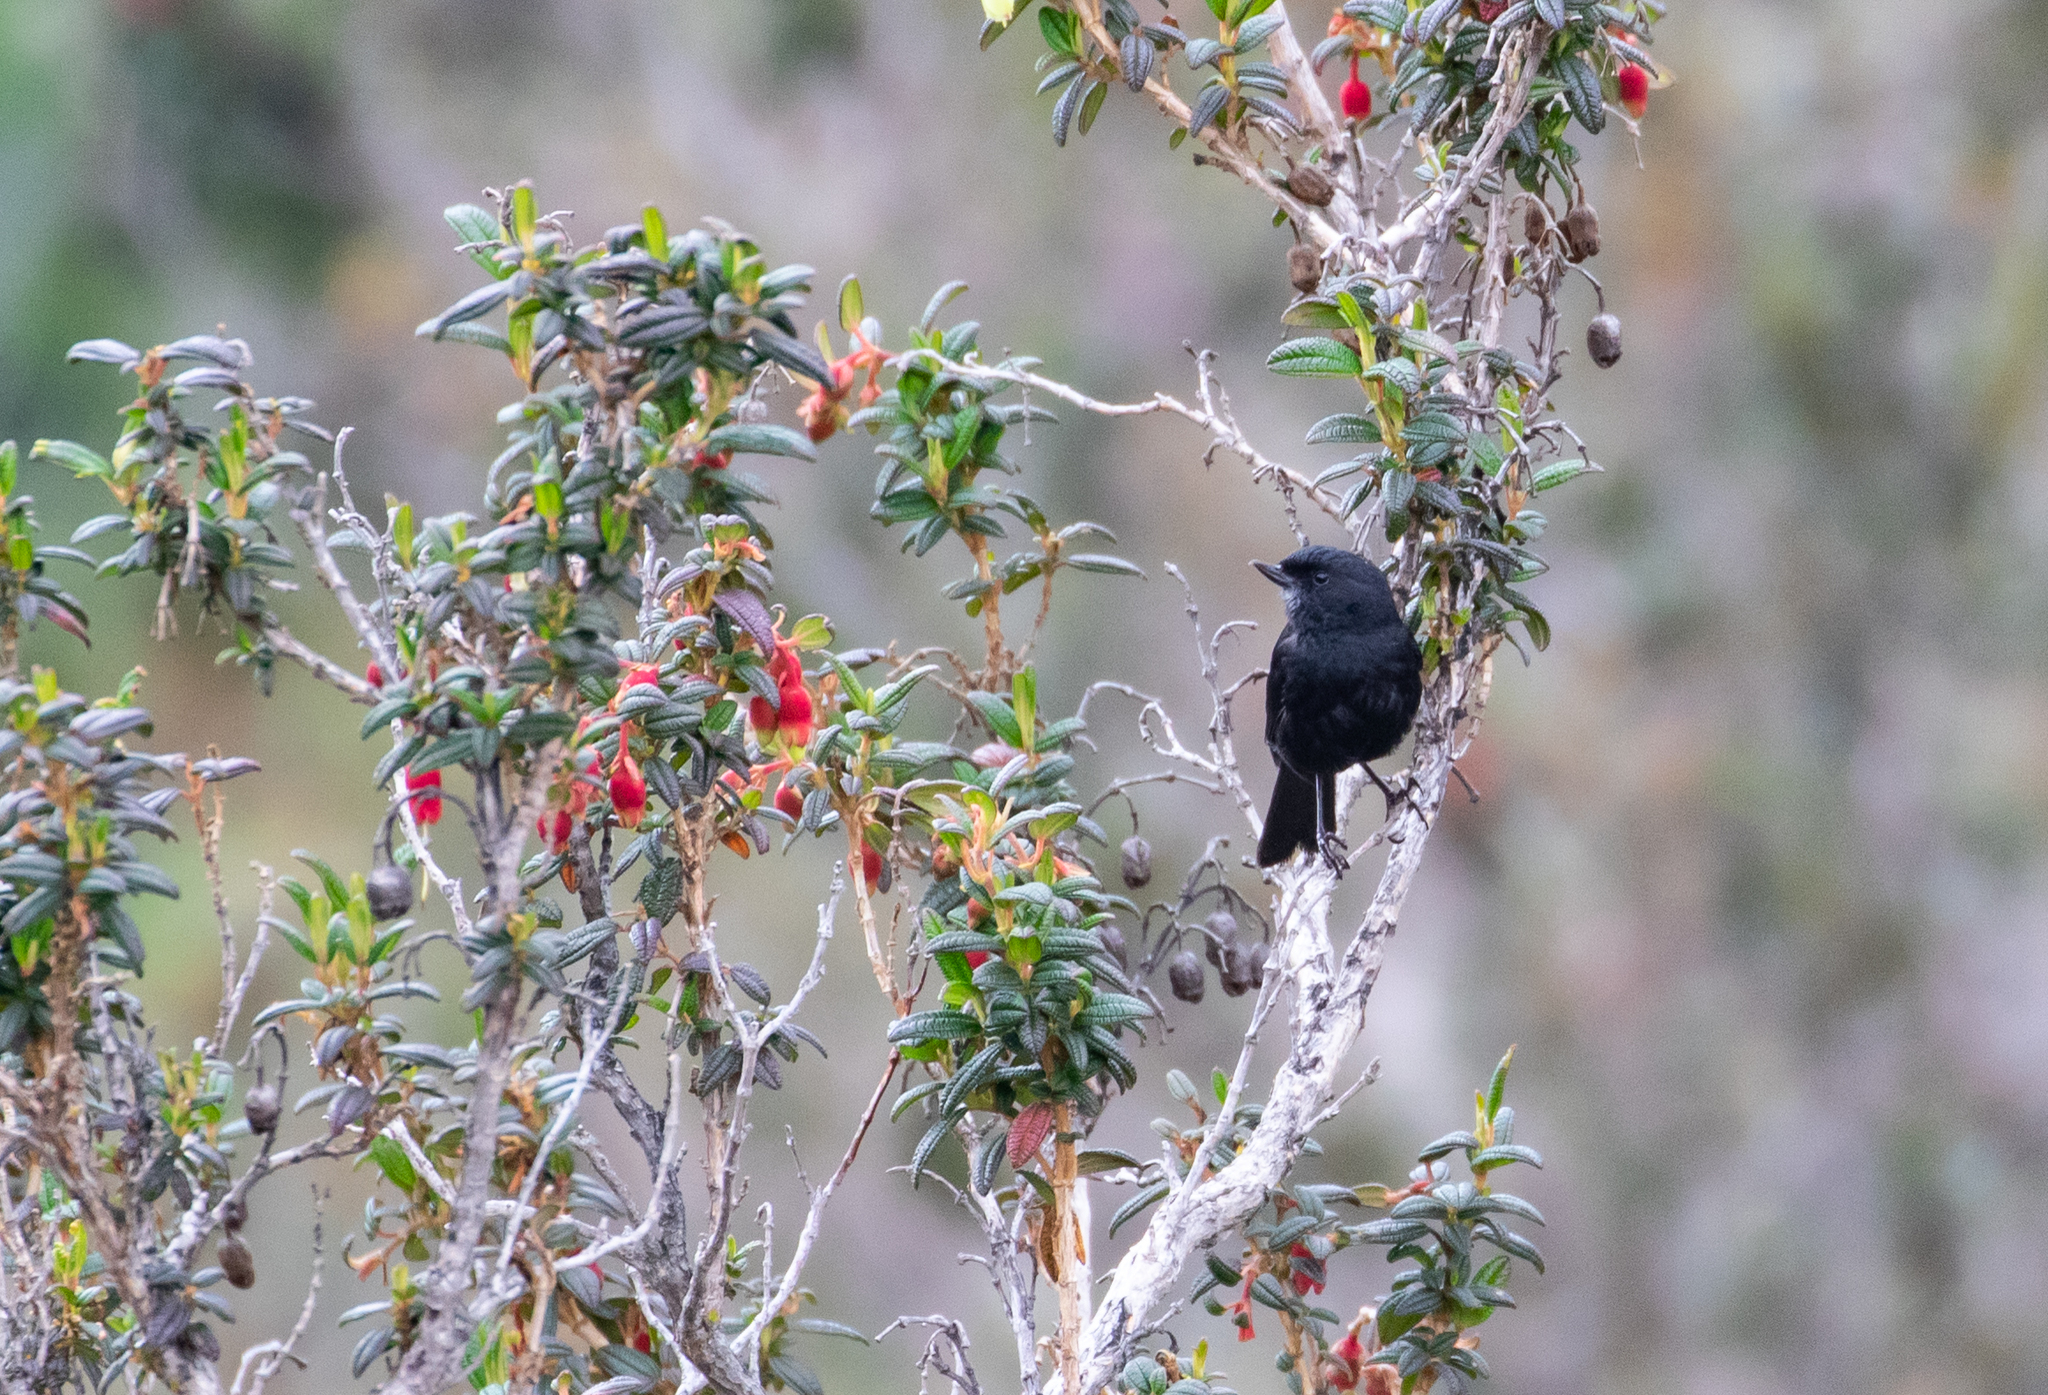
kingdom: Animalia
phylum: Chordata
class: Aves
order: Passeriformes
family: Thraupidae
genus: Diglossa
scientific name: Diglossa humeralis
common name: Black flowerpiercer
